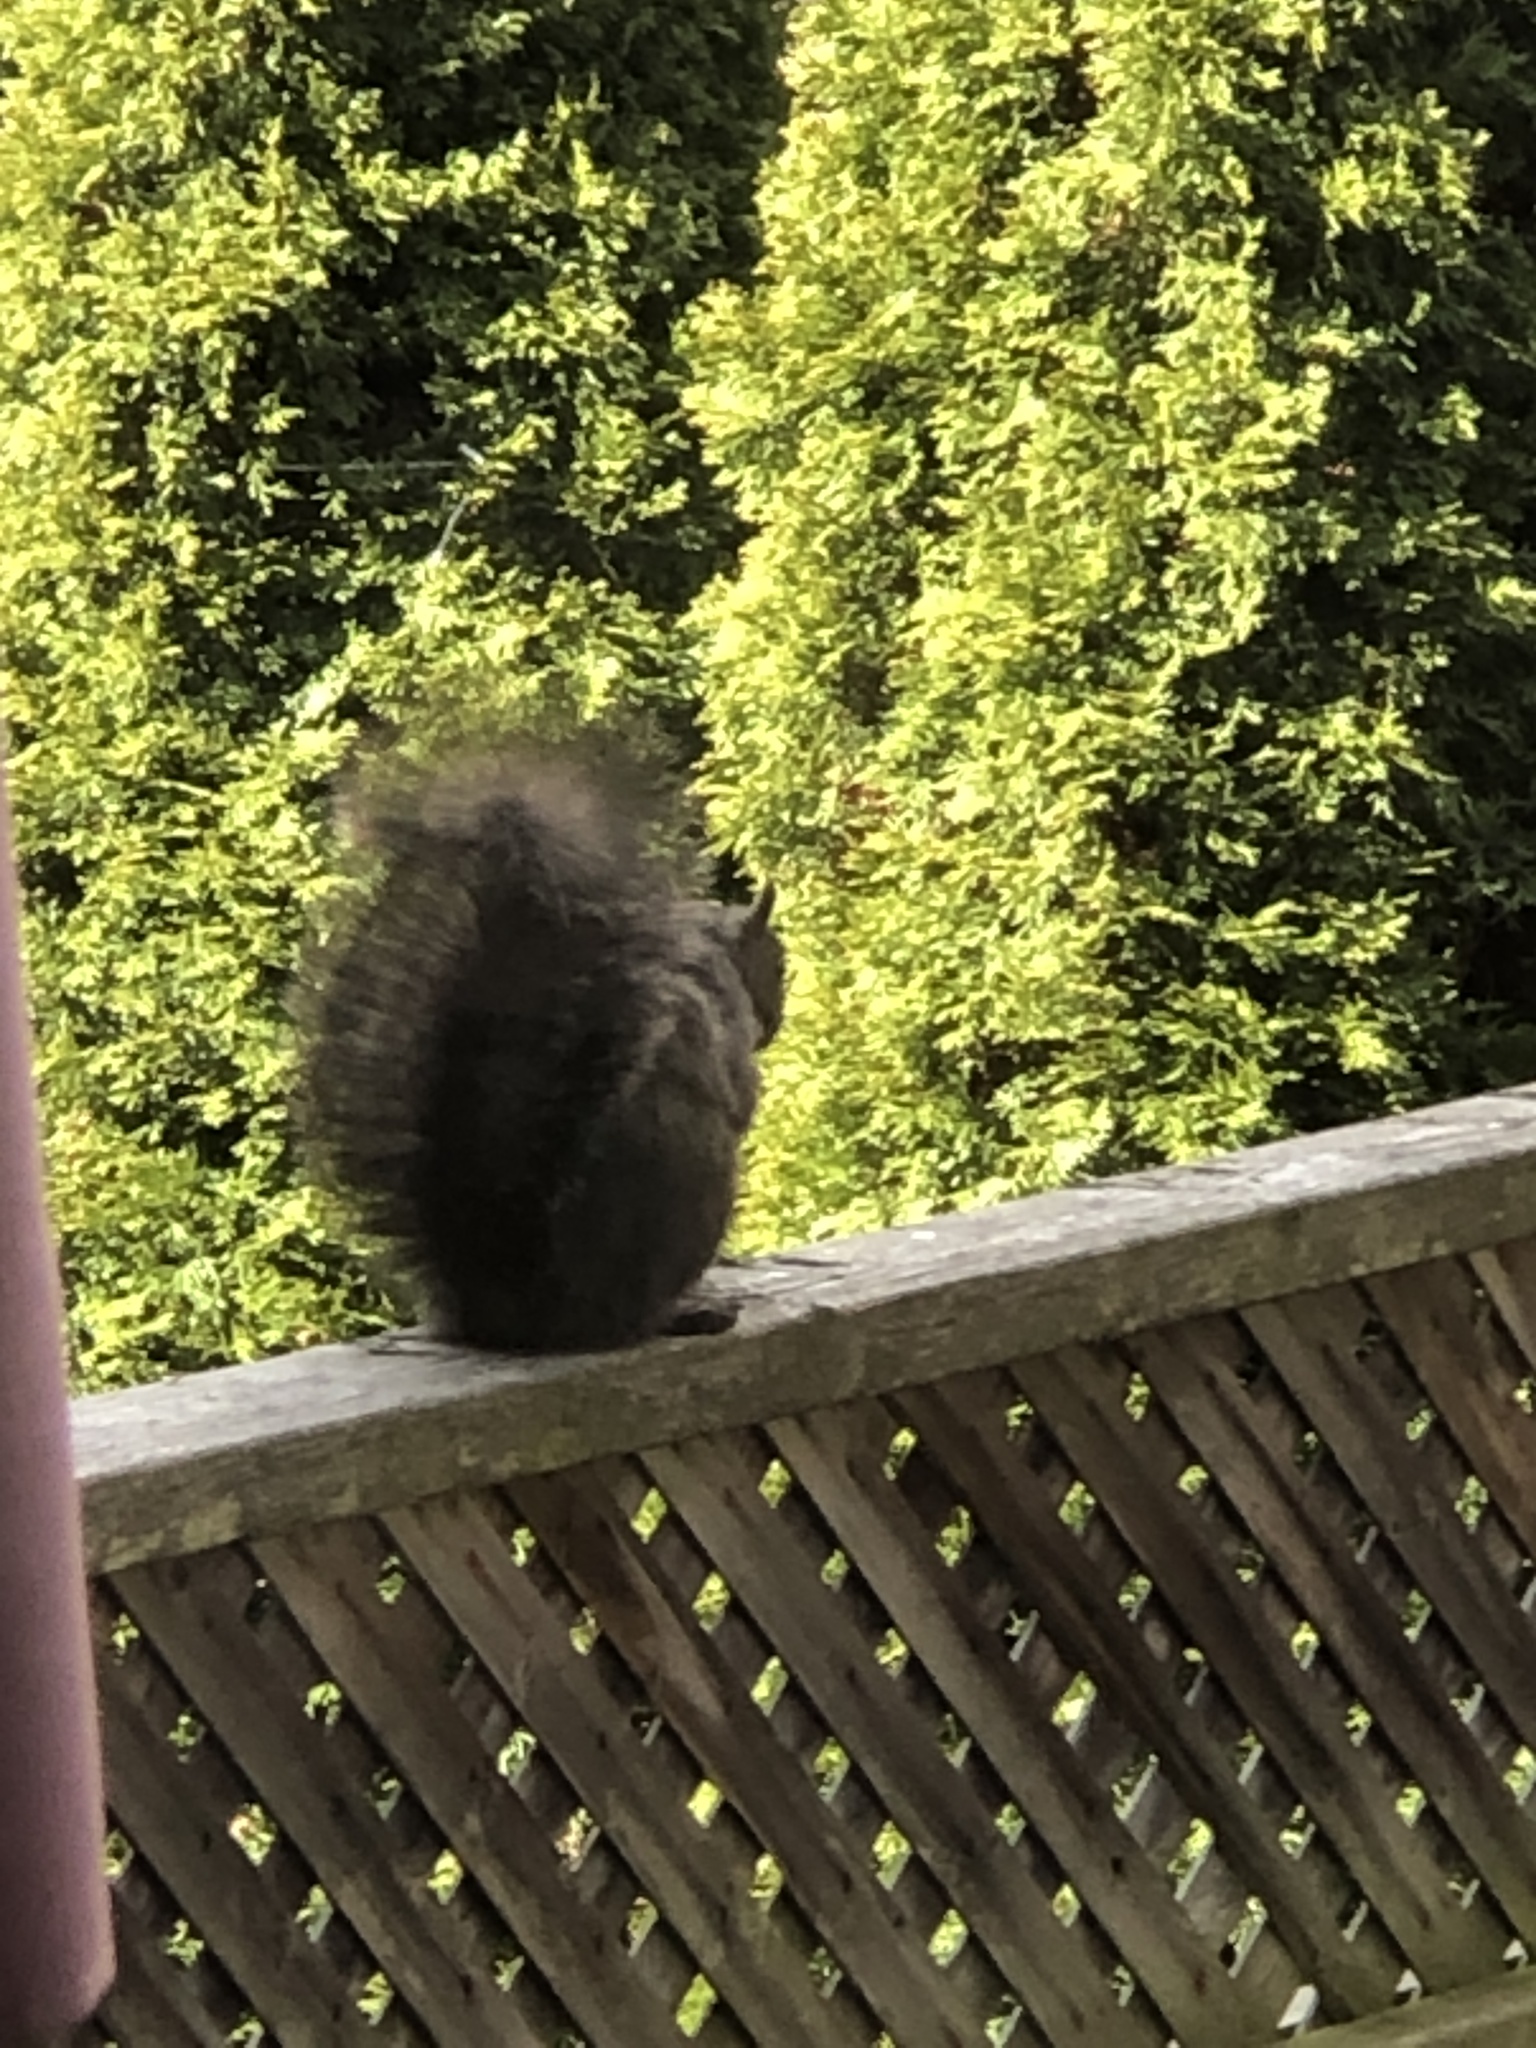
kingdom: Animalia
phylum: Chordata
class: Mammalia
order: Rodentia
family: Sciuridae
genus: Sciurus
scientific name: Sciurus carolinensis
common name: Eastern gray squirrel
